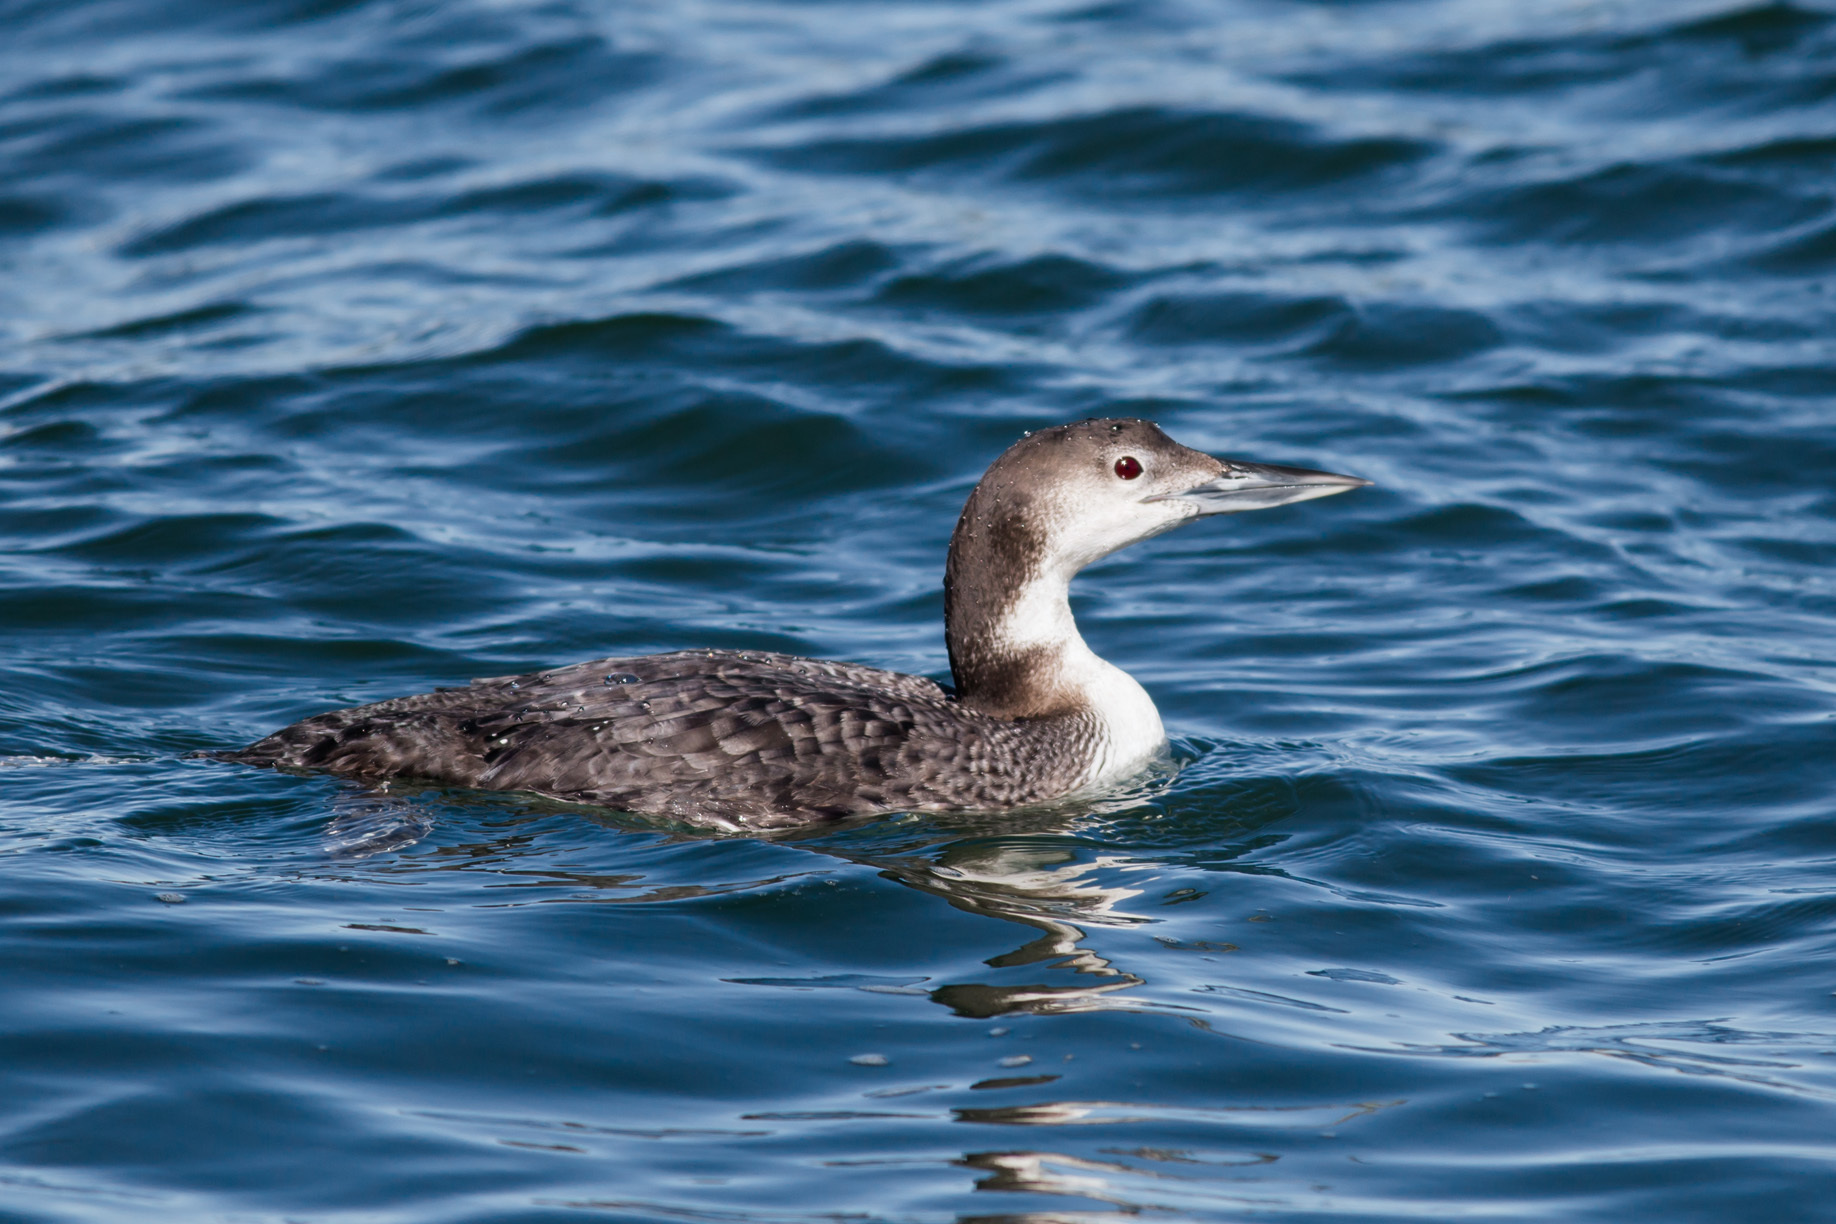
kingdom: Animalia
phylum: Chordata
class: Aves
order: Gaviiformes
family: Gaviidae
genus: Gavia
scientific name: Gavia immer
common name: Common loon
